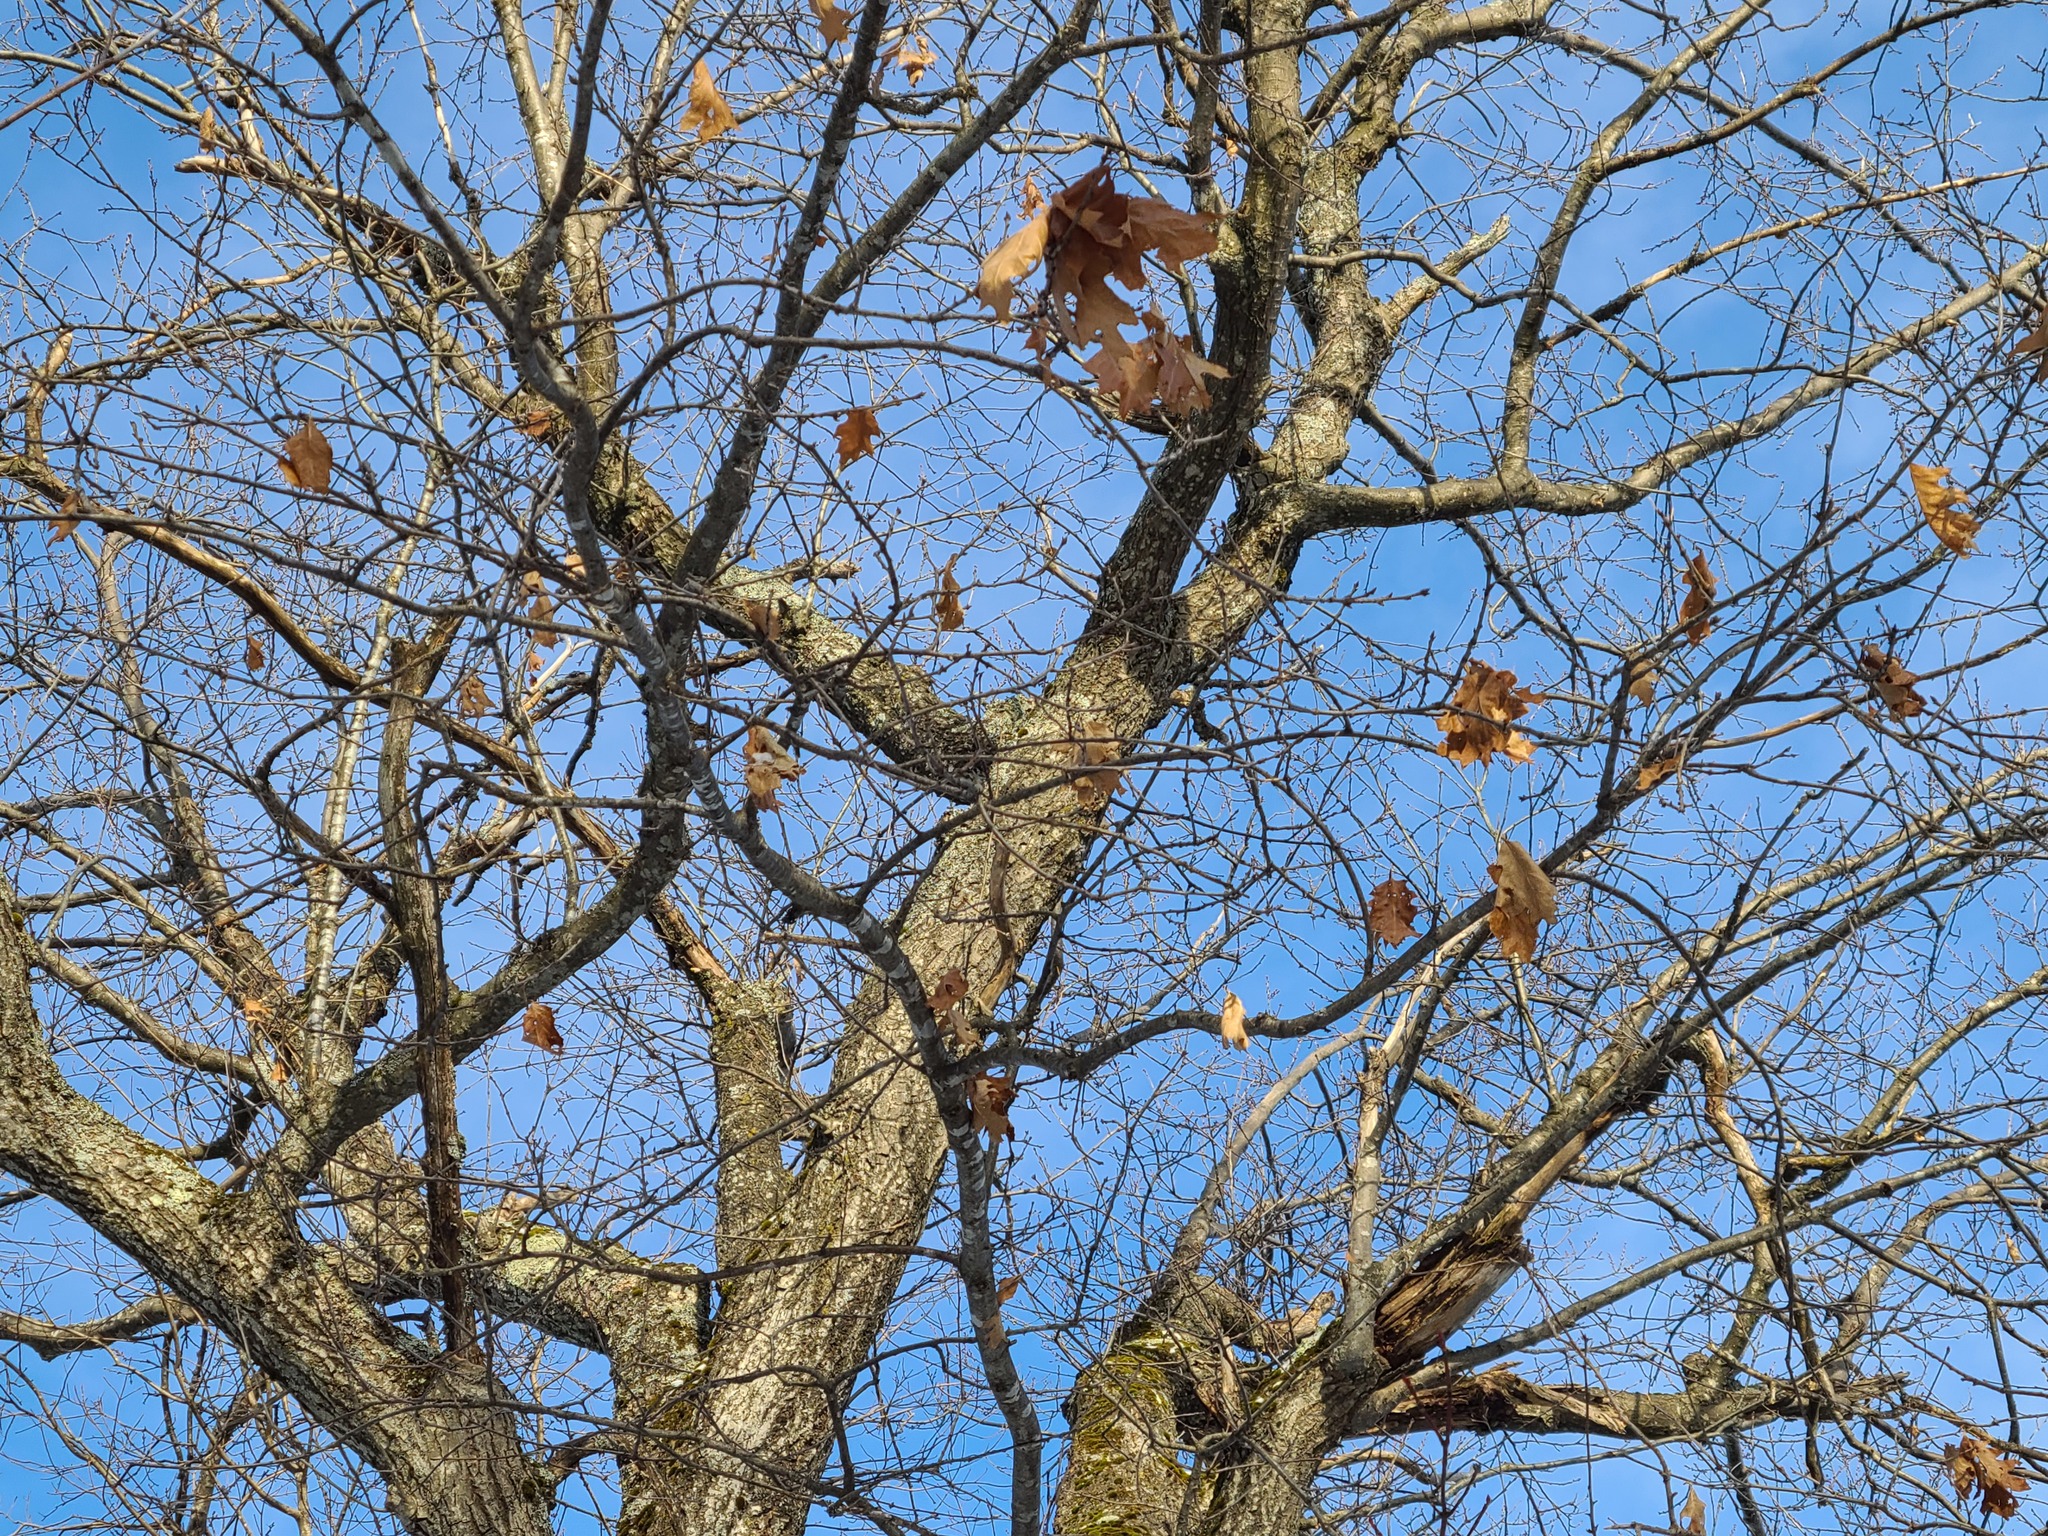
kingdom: Plantae
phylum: Tracheophyta
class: Magnoliopsida
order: Fagales
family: Fagaceae
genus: Quercus
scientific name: Quercus rubra
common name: Red oak
